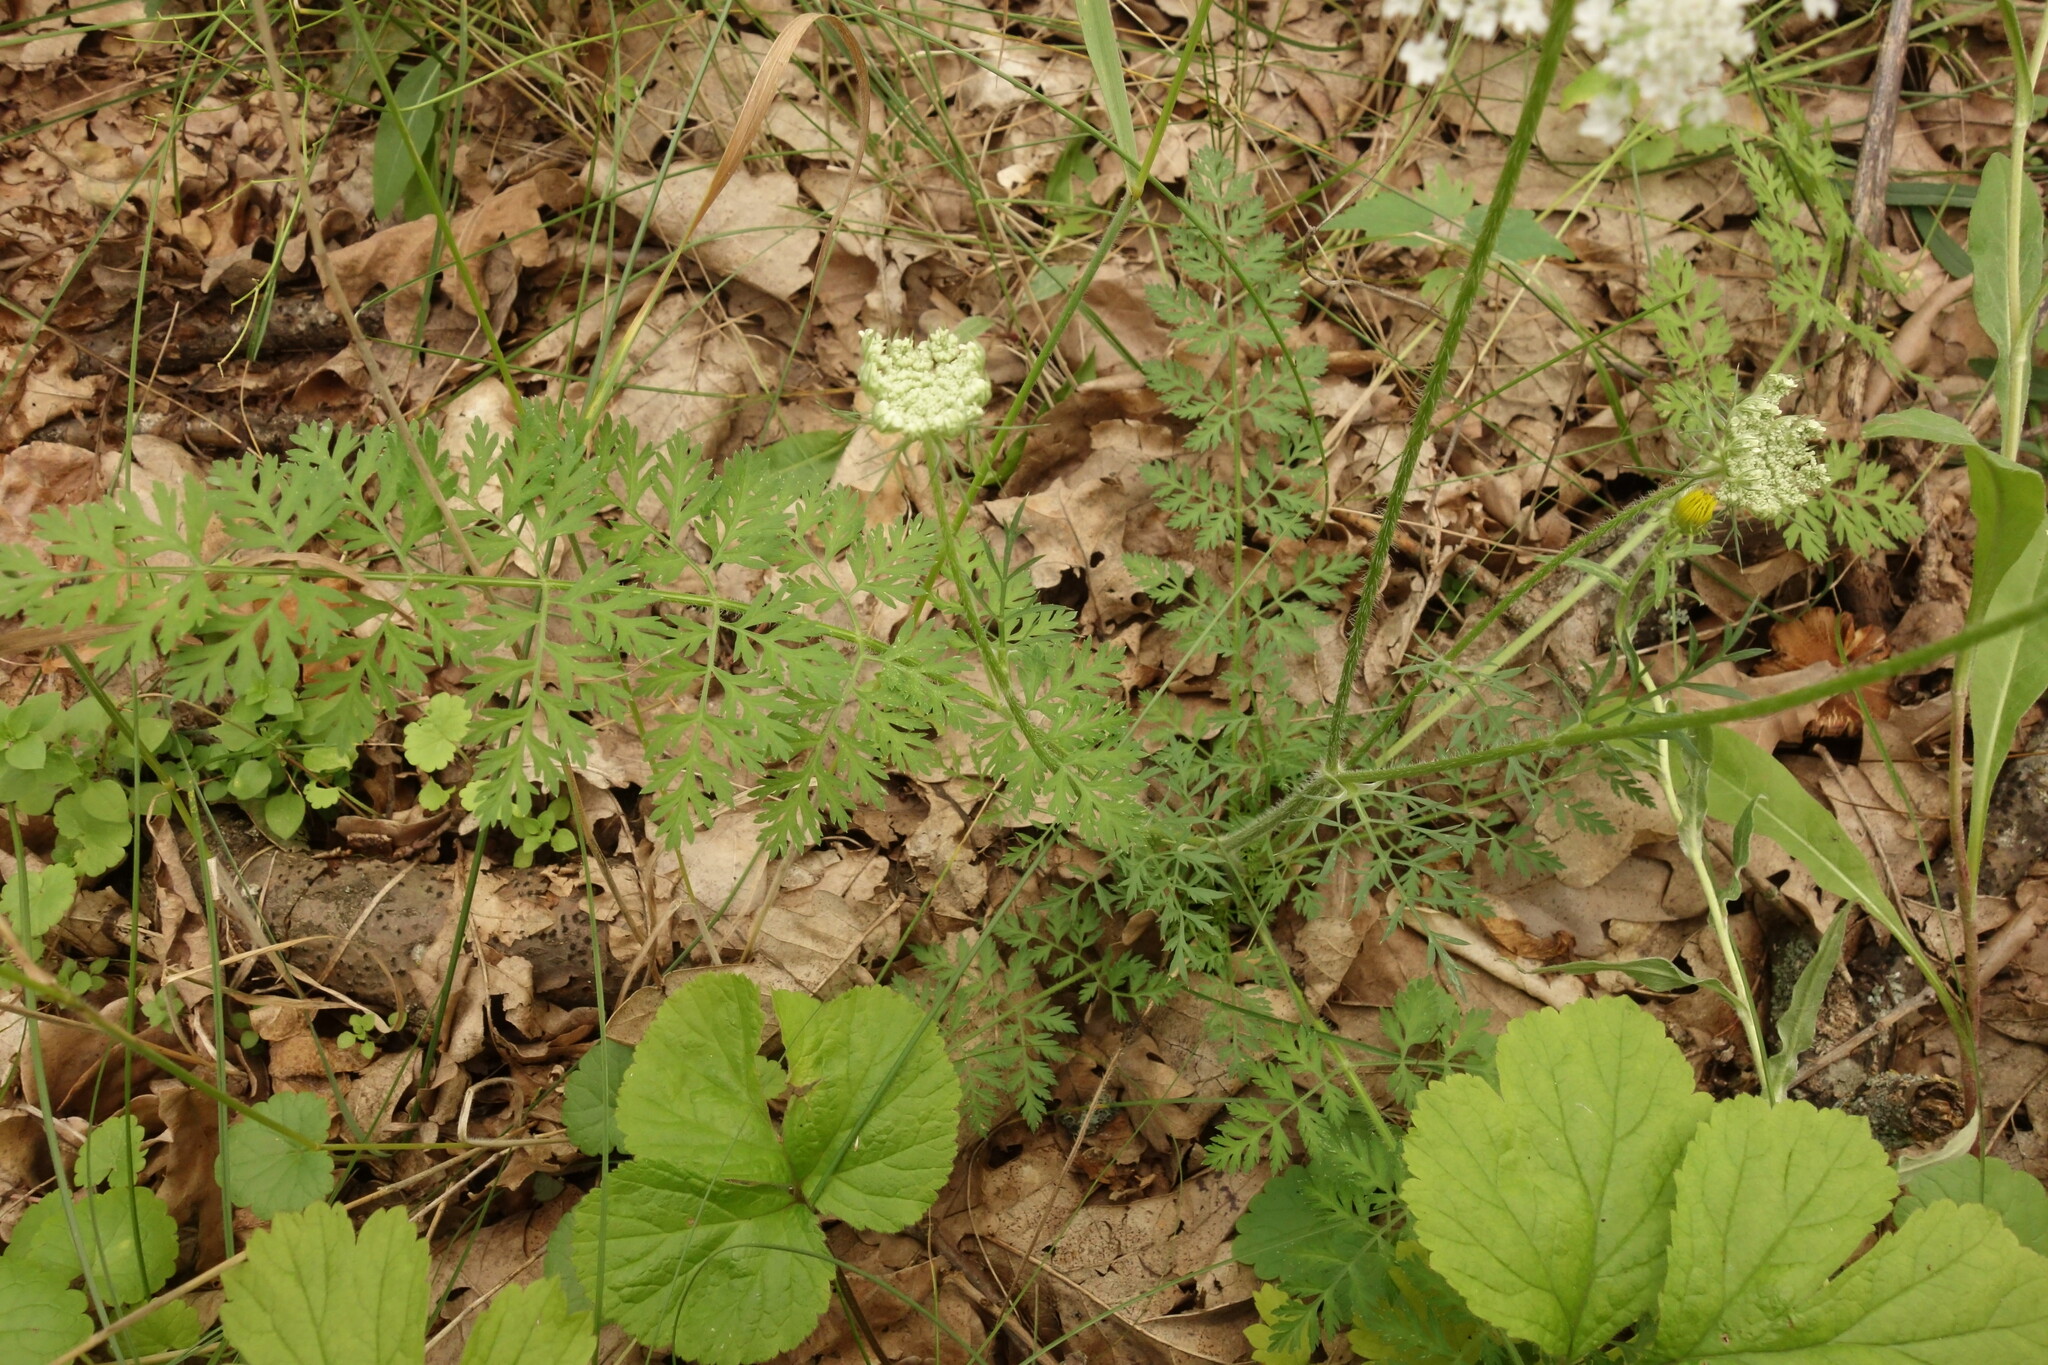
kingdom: Plantae
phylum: Tracheophyta
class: Magnoliopsida
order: Apiales
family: Apiaceae
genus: Daucus
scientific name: Daucus carota
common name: Wild carrot
